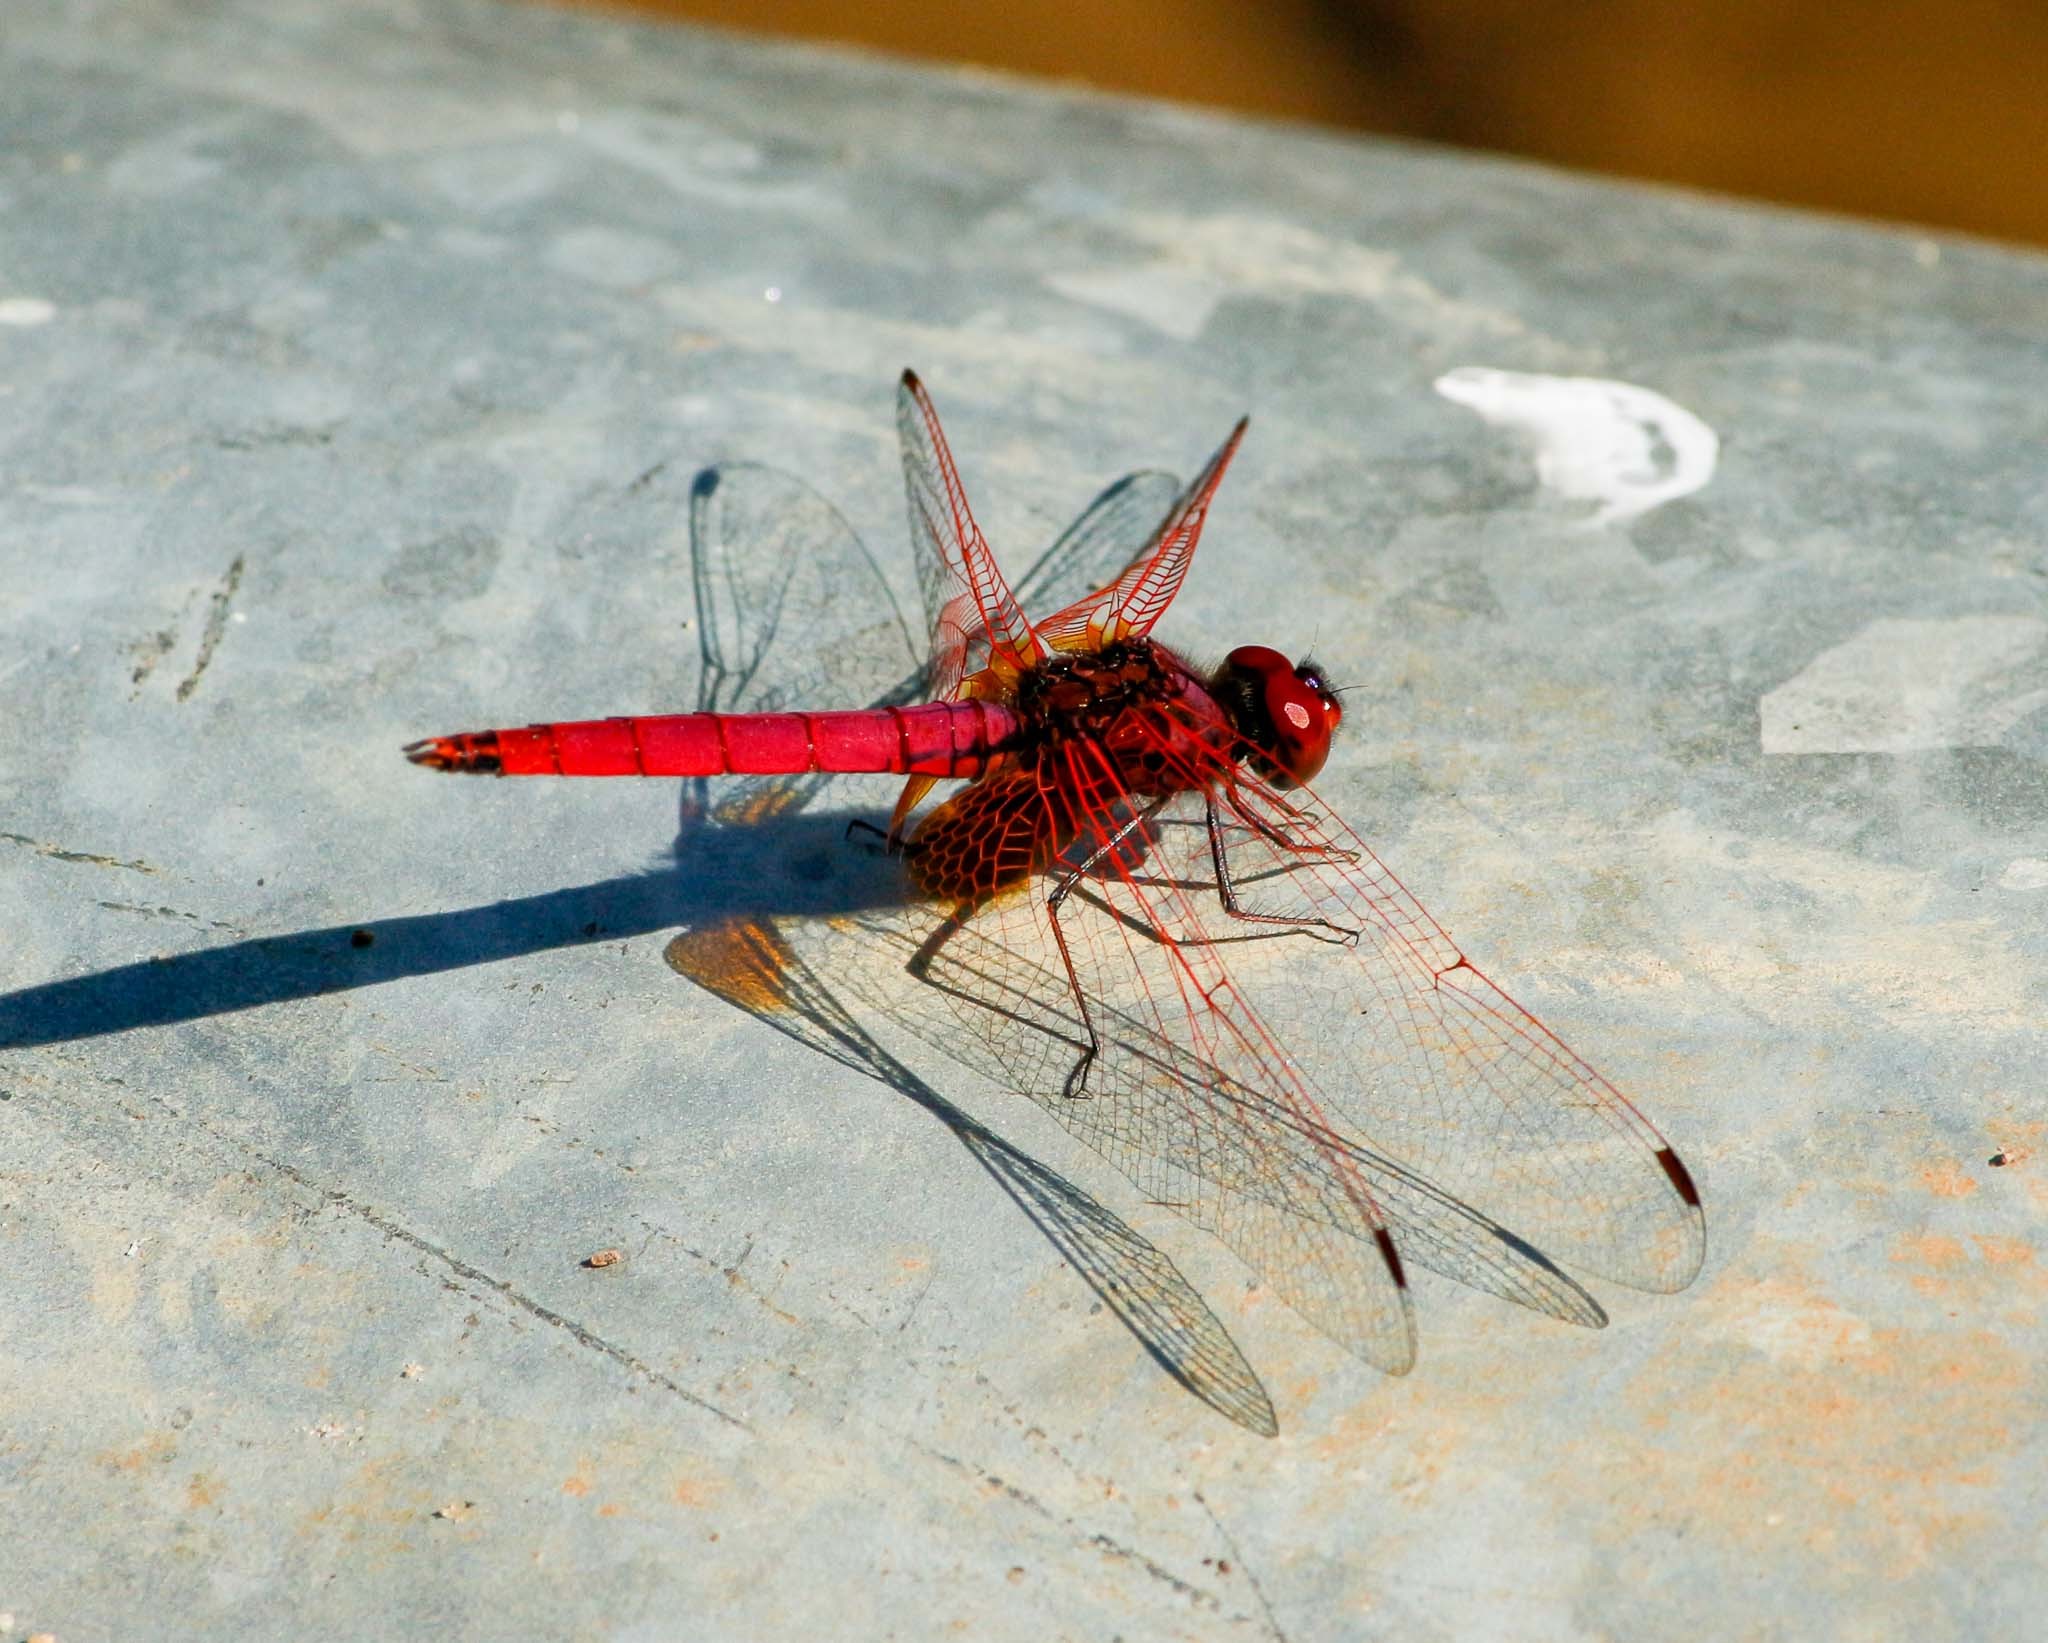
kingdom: Animalia
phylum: Arthropoda
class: Insecta
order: Odonata
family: Libellulidae
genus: Trithemis
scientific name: Trithemis aurora
